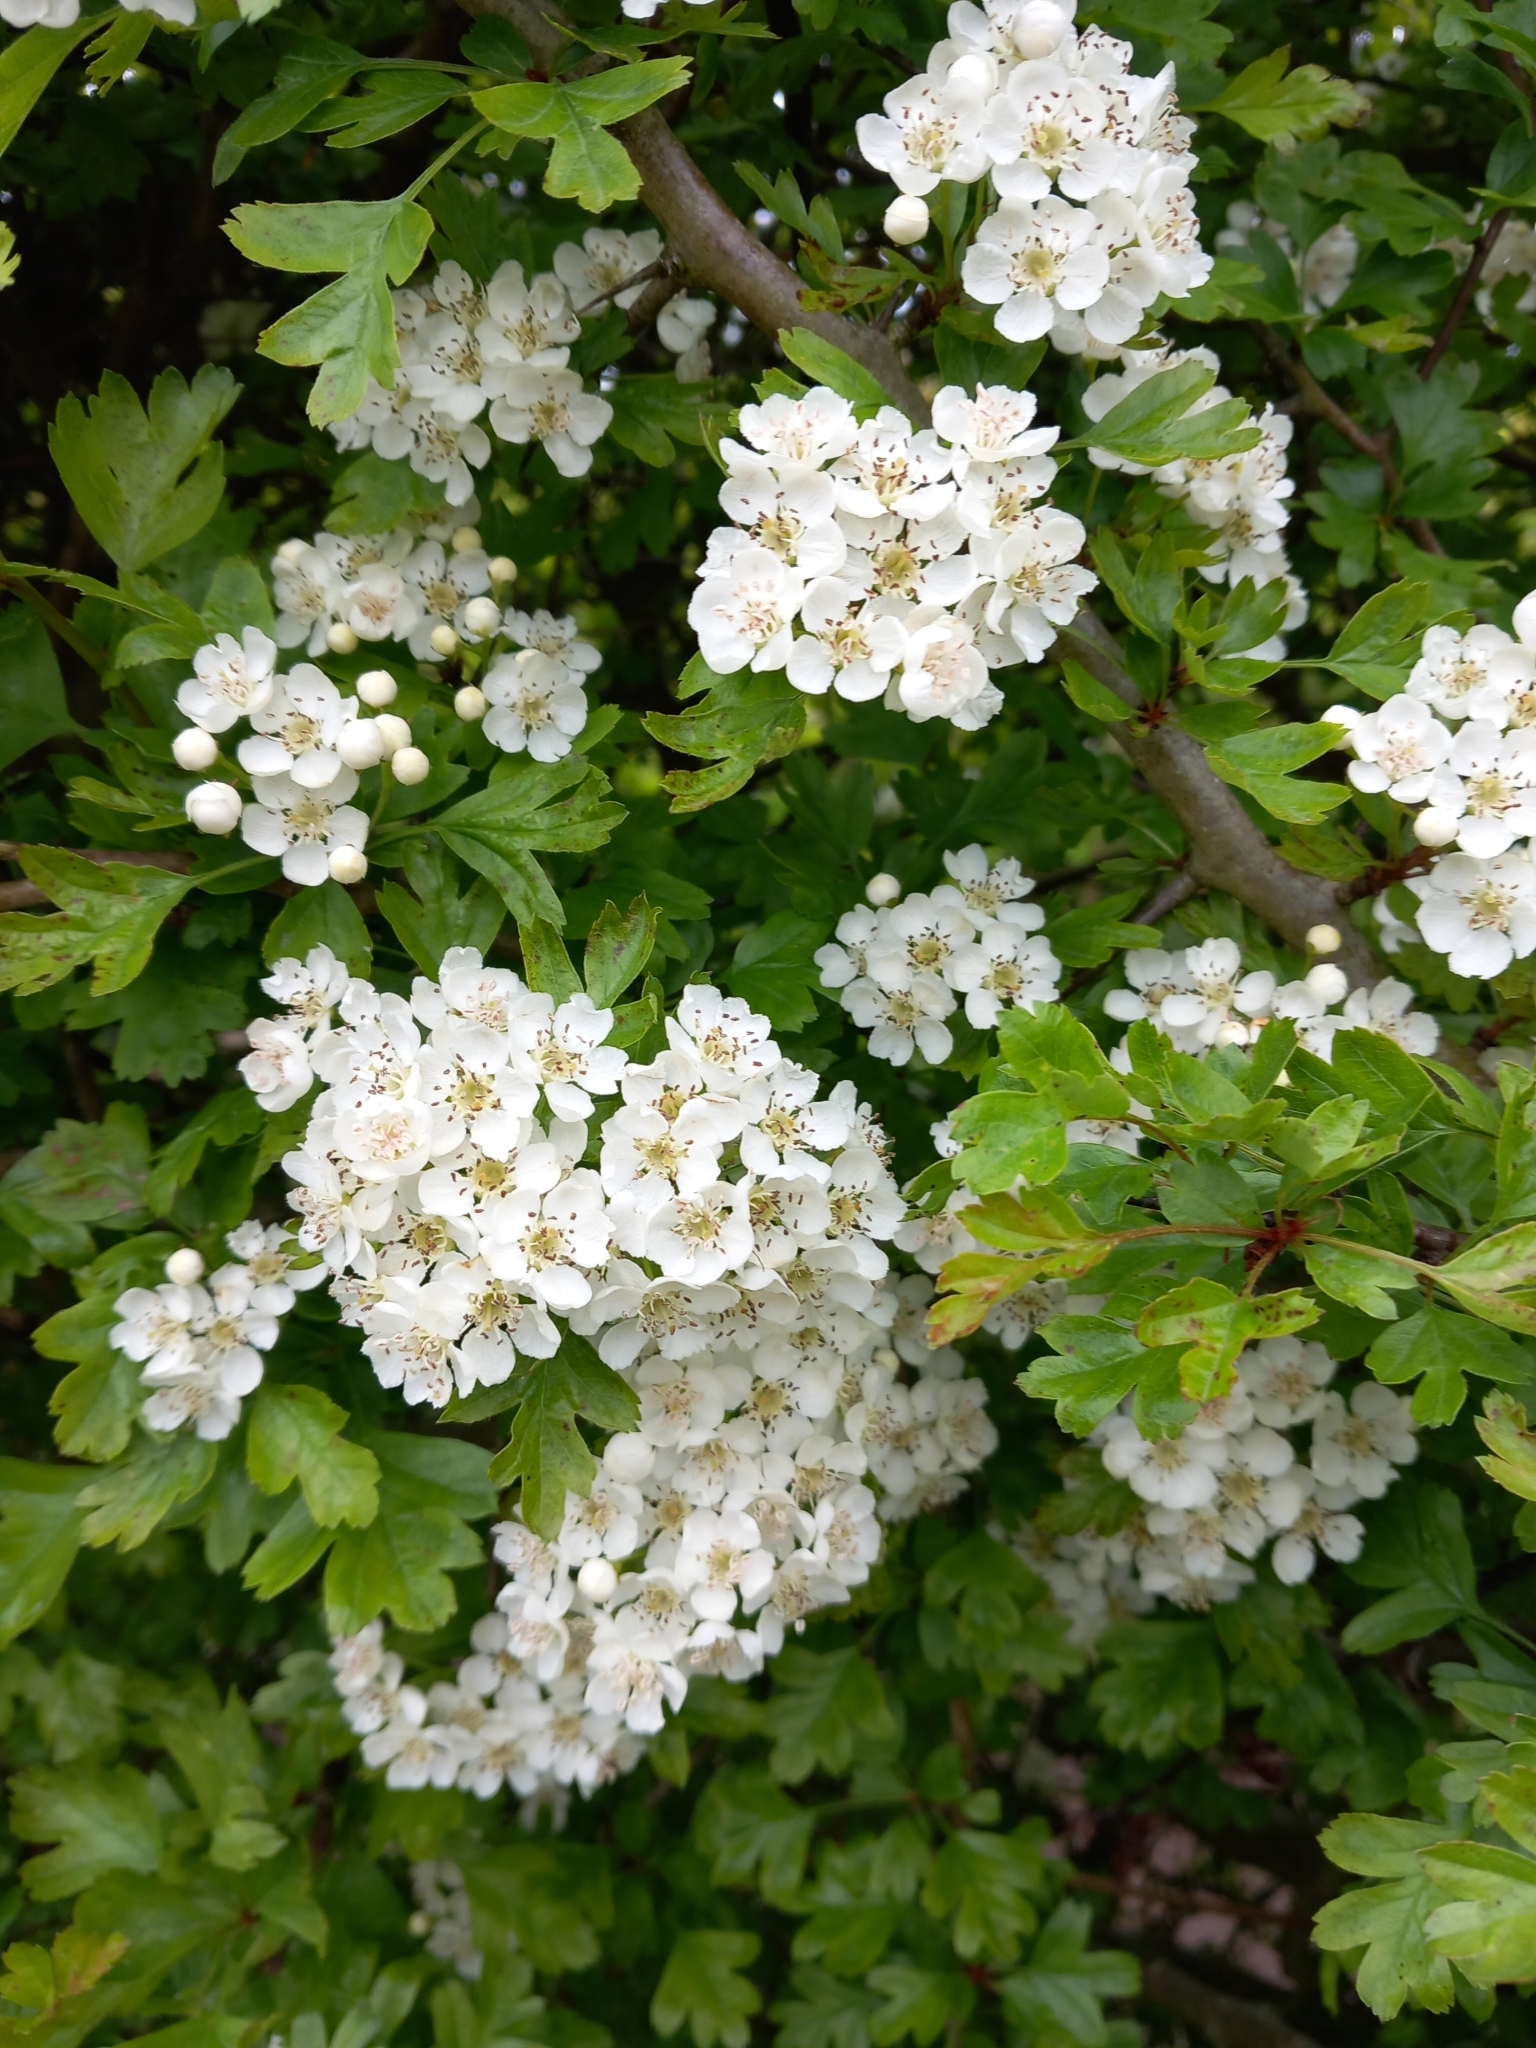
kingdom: Plantae
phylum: Tracheophyta
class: Magnoliopsida
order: Rosales
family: Rosaceae
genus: Crataegus
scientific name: Crataegus monogyna
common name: Hawthorn
